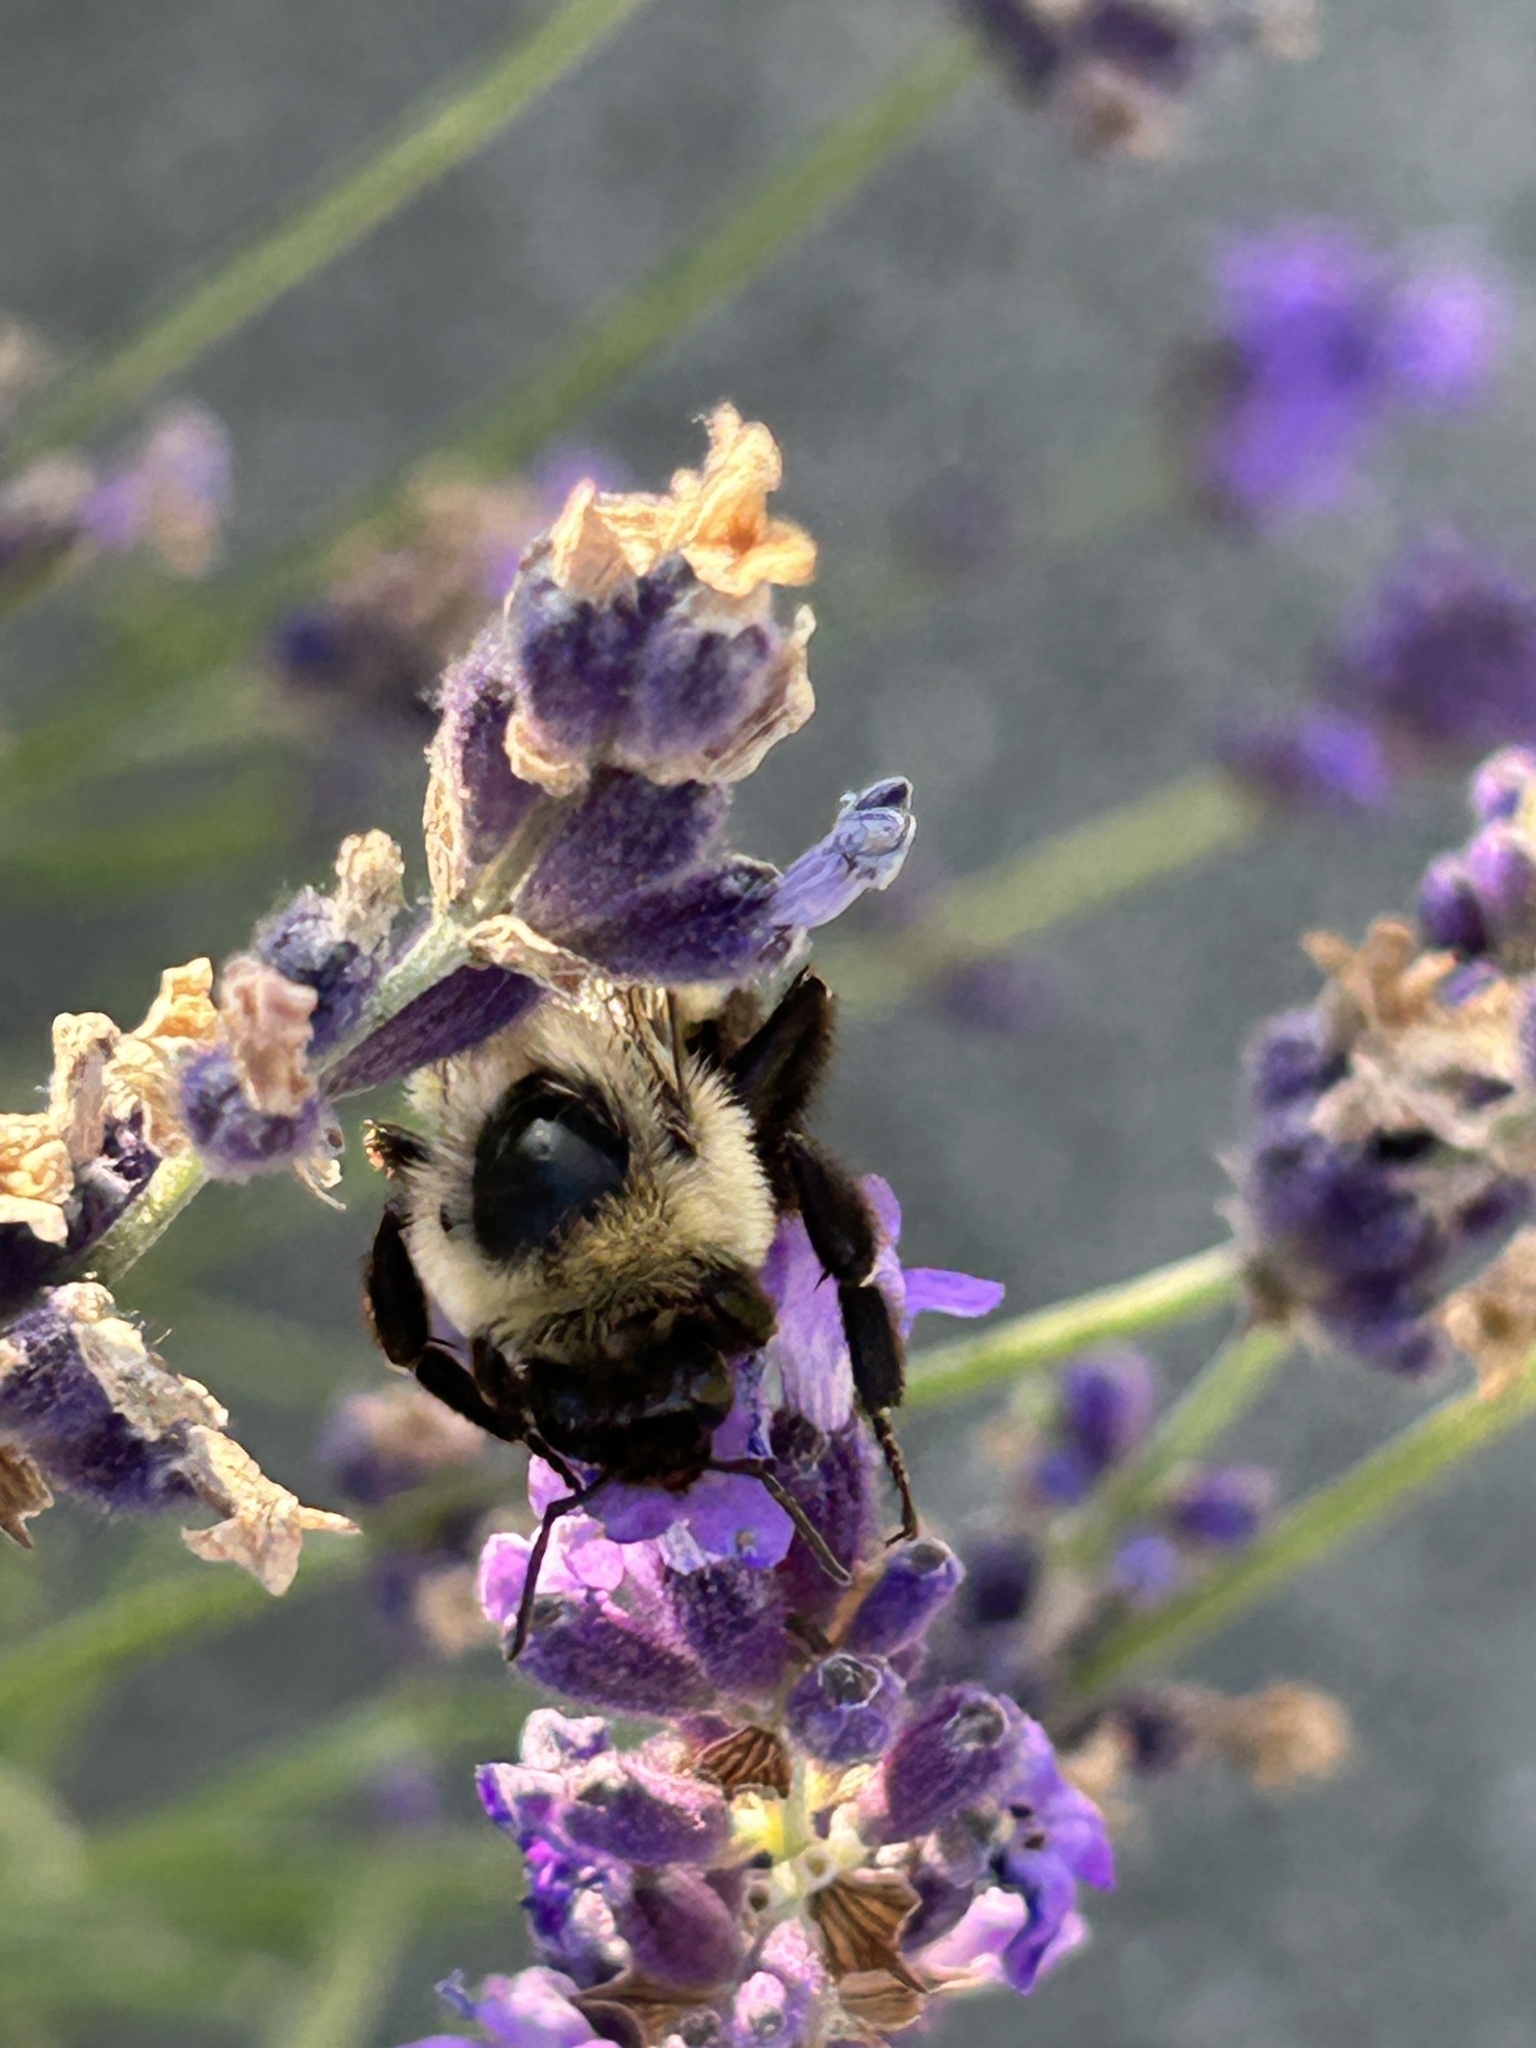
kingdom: Animalia
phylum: Arthropoda
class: Insecta
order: Hymenoptera
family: Apidae
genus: Bombus
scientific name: Bombus impatiens
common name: Common eastern bumble bee
